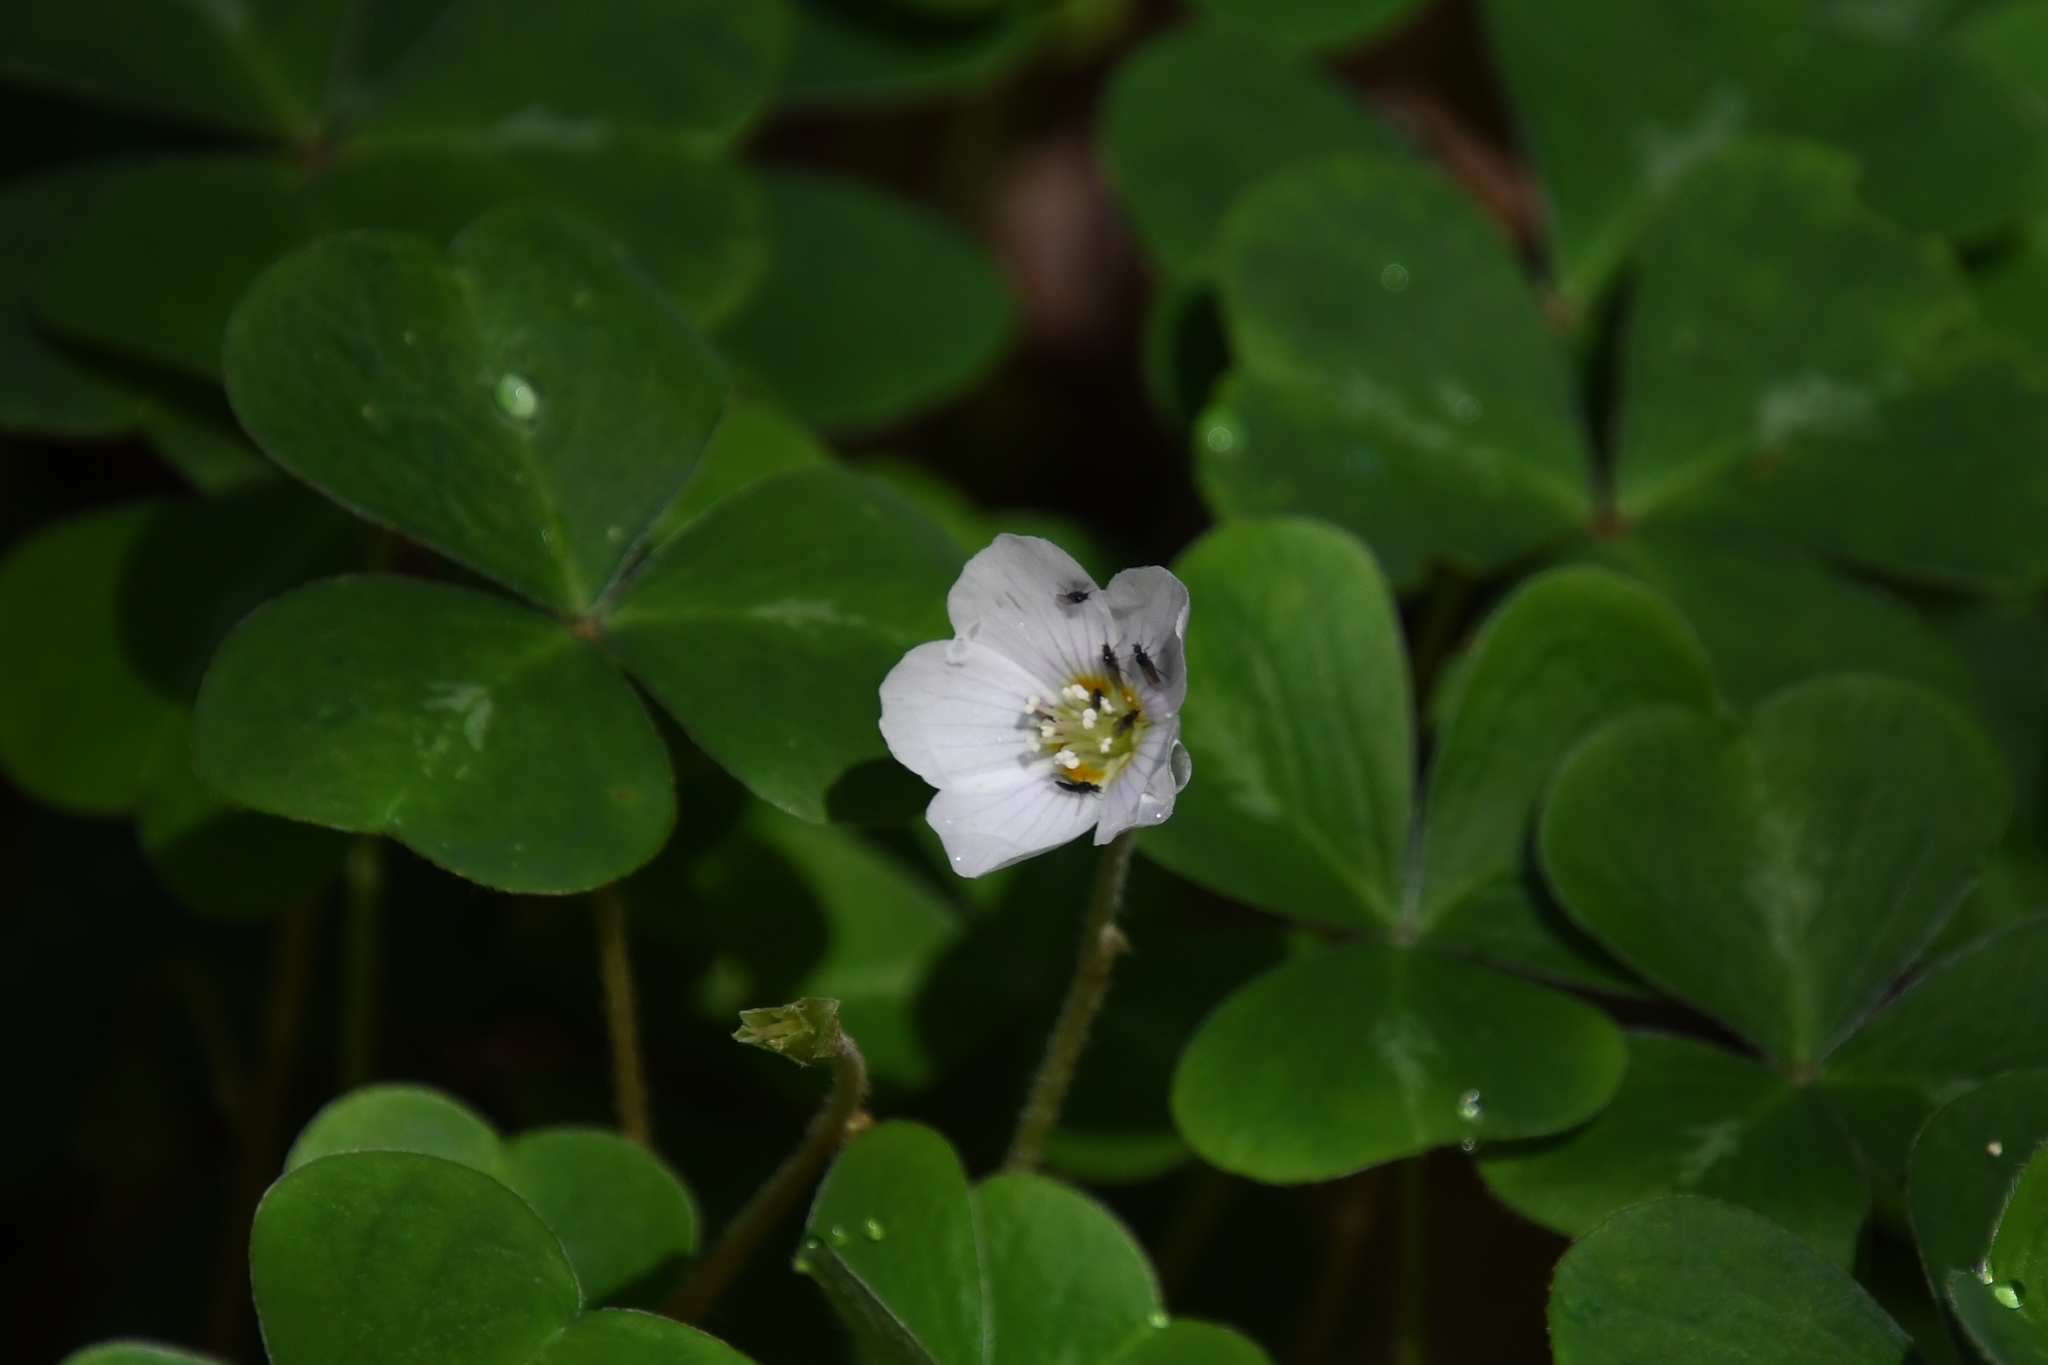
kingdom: Plantae
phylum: Tracheophyta
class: Magnoliopsida
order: Oxalidales
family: Oxalidaceae
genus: Oxalis
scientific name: Oxalis oregana
